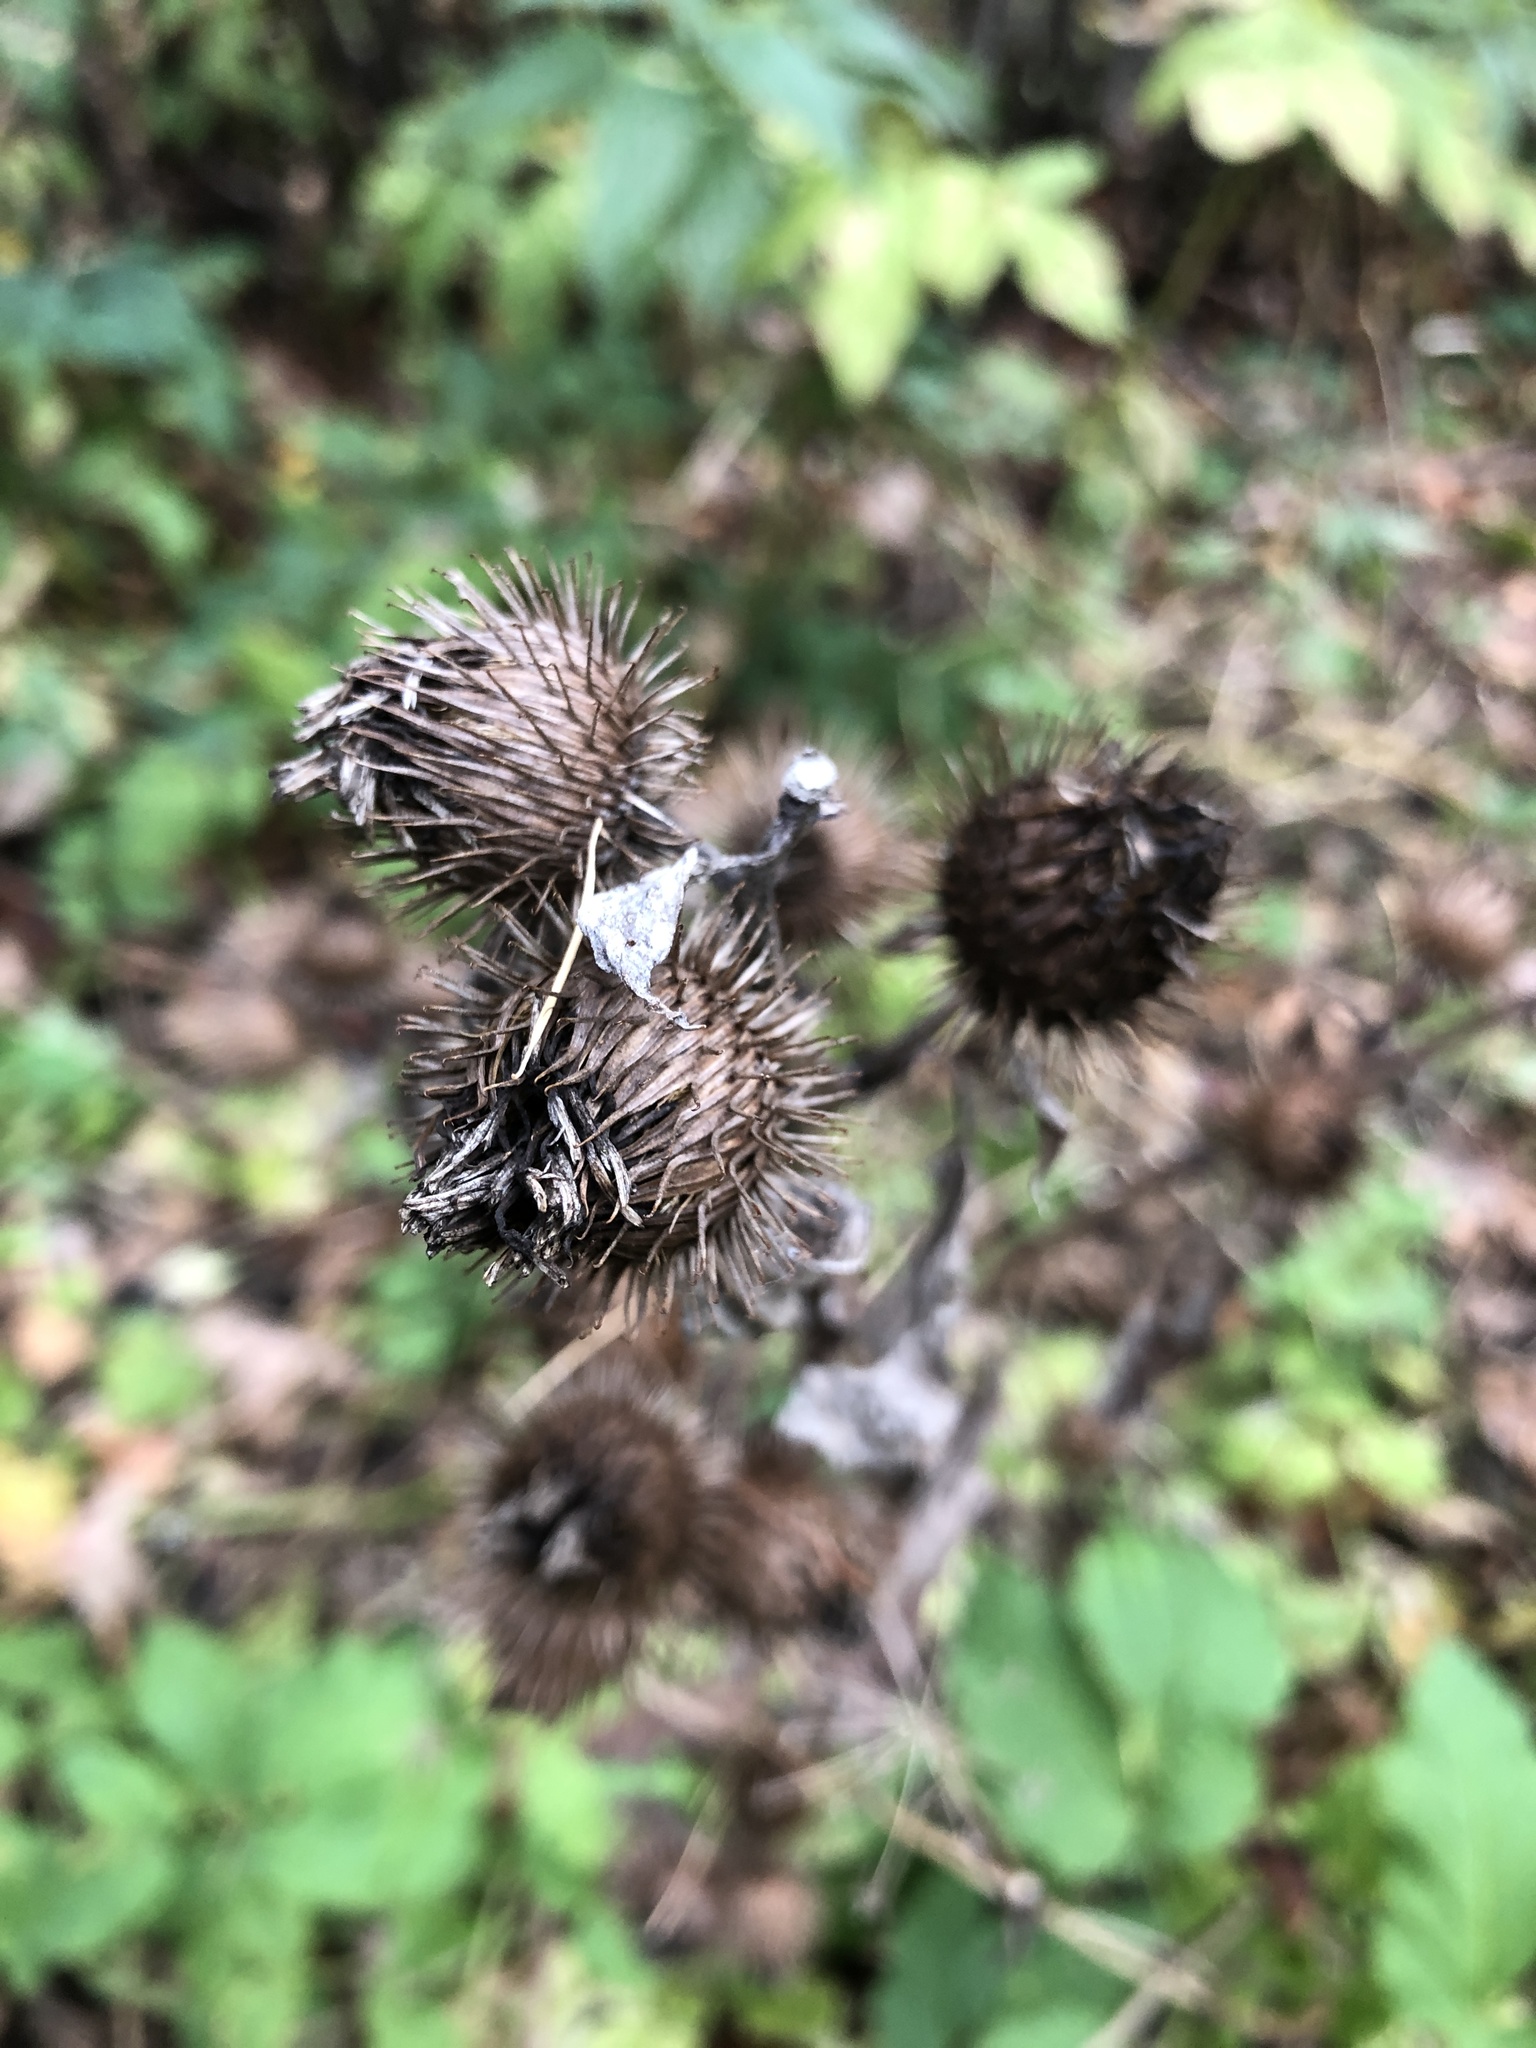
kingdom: Plantae
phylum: Tracheophyta
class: Magnoliopsida
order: Asterales
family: Asteraceae
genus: Arctium
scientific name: Arctium minus
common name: Lesser burdock
